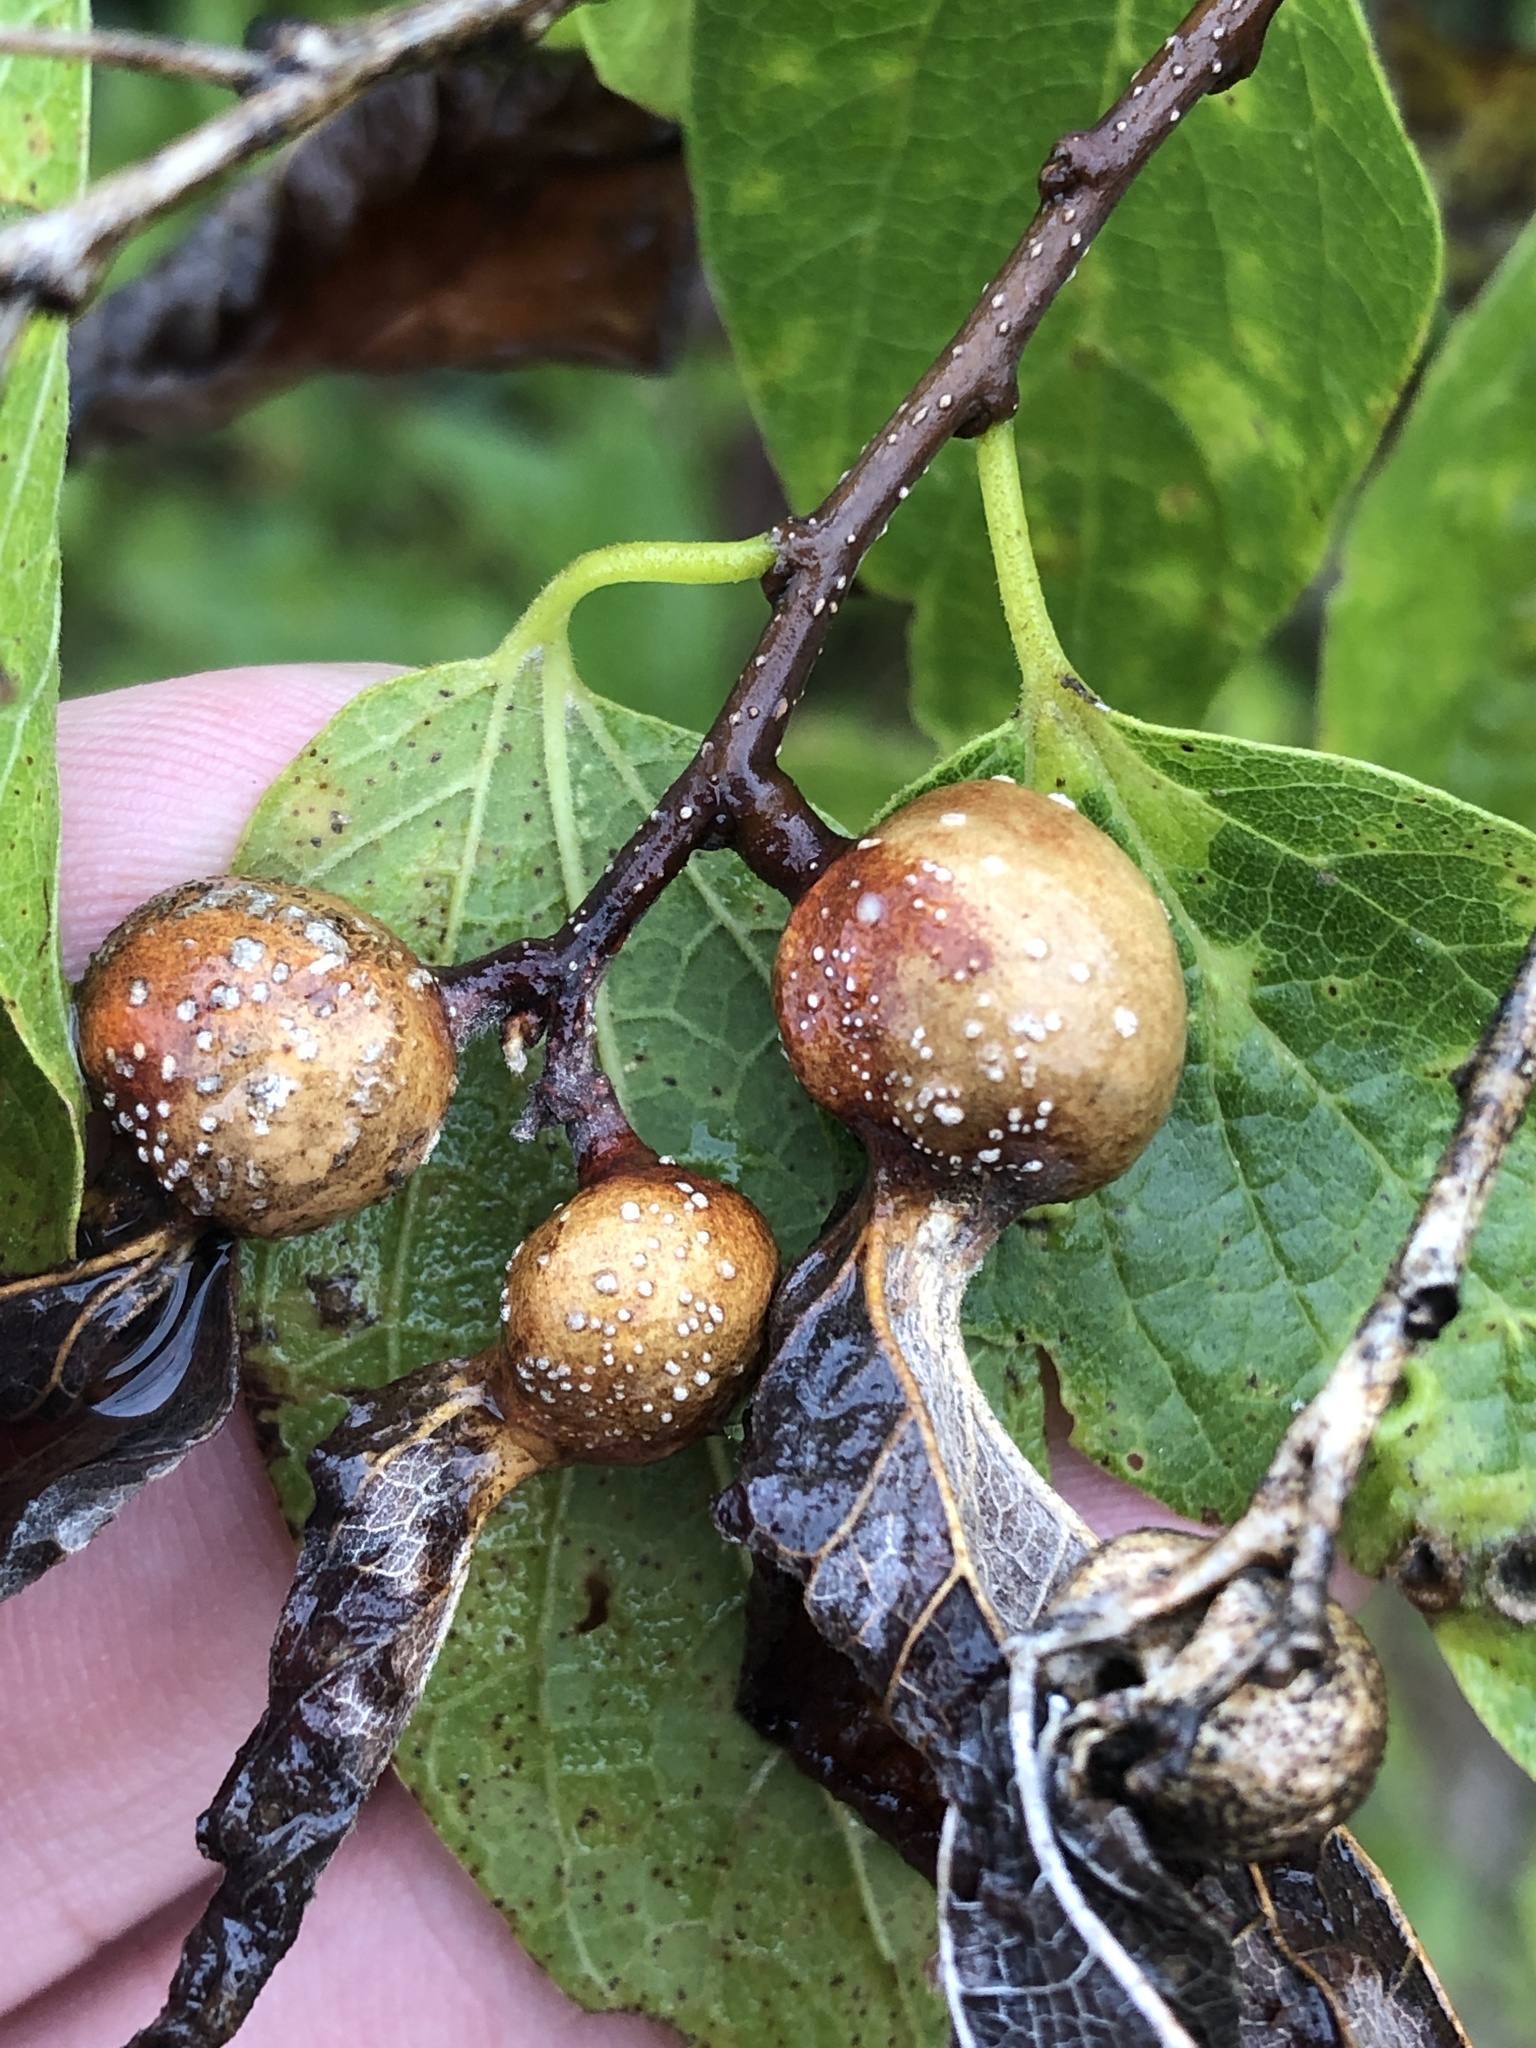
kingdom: Animalia
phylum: Arthropoda
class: Insecta
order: Hemiptera
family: Aphalaridae
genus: Pachypsylla
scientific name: Pachypsylla venusta
